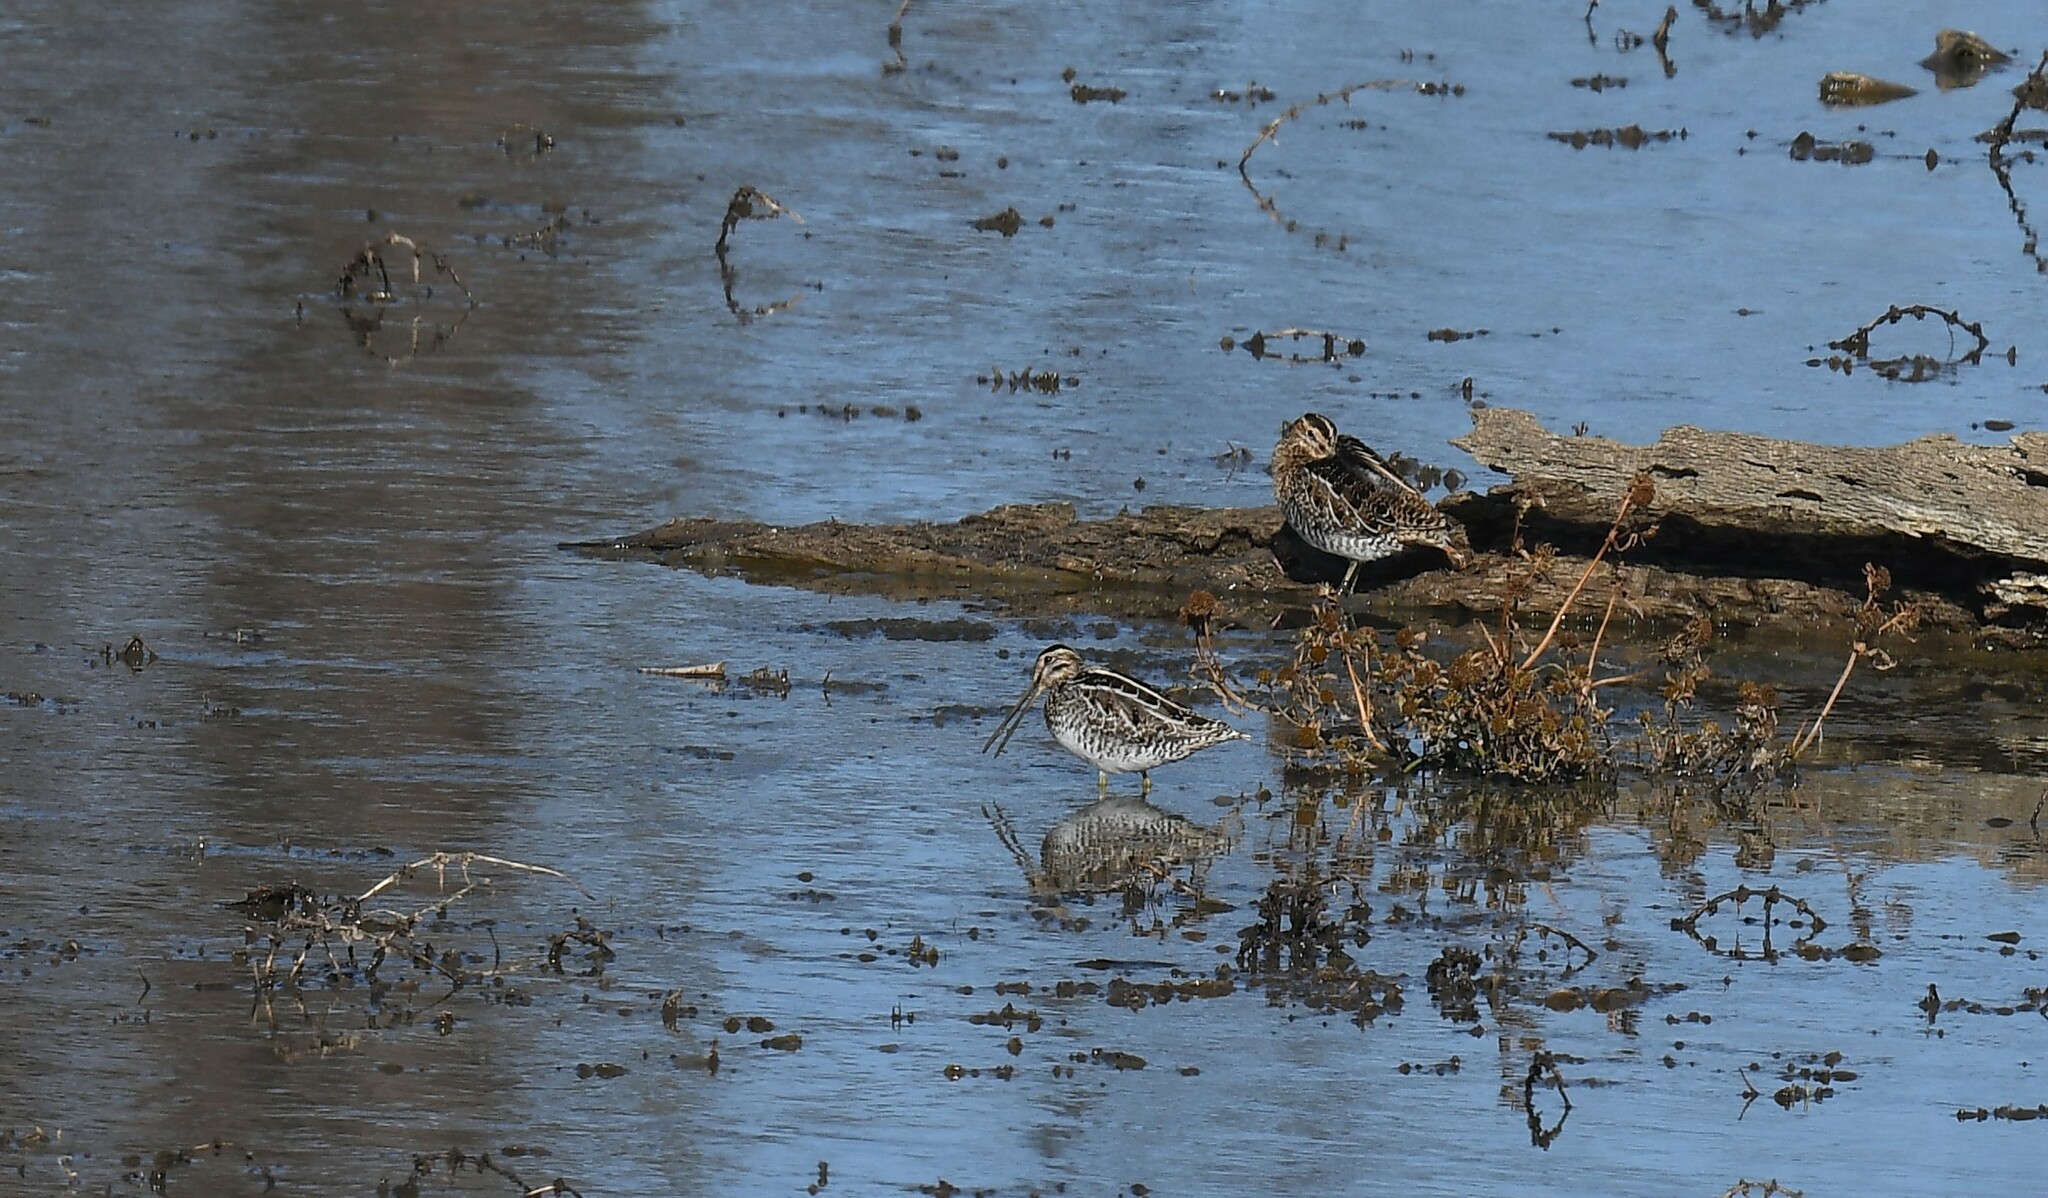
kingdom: Animalia
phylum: Chordata
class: Aves
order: Charadriiformes
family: Scolopacidae
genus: Gallinago
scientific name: Gallinago delicata
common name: Wilson's snipe
